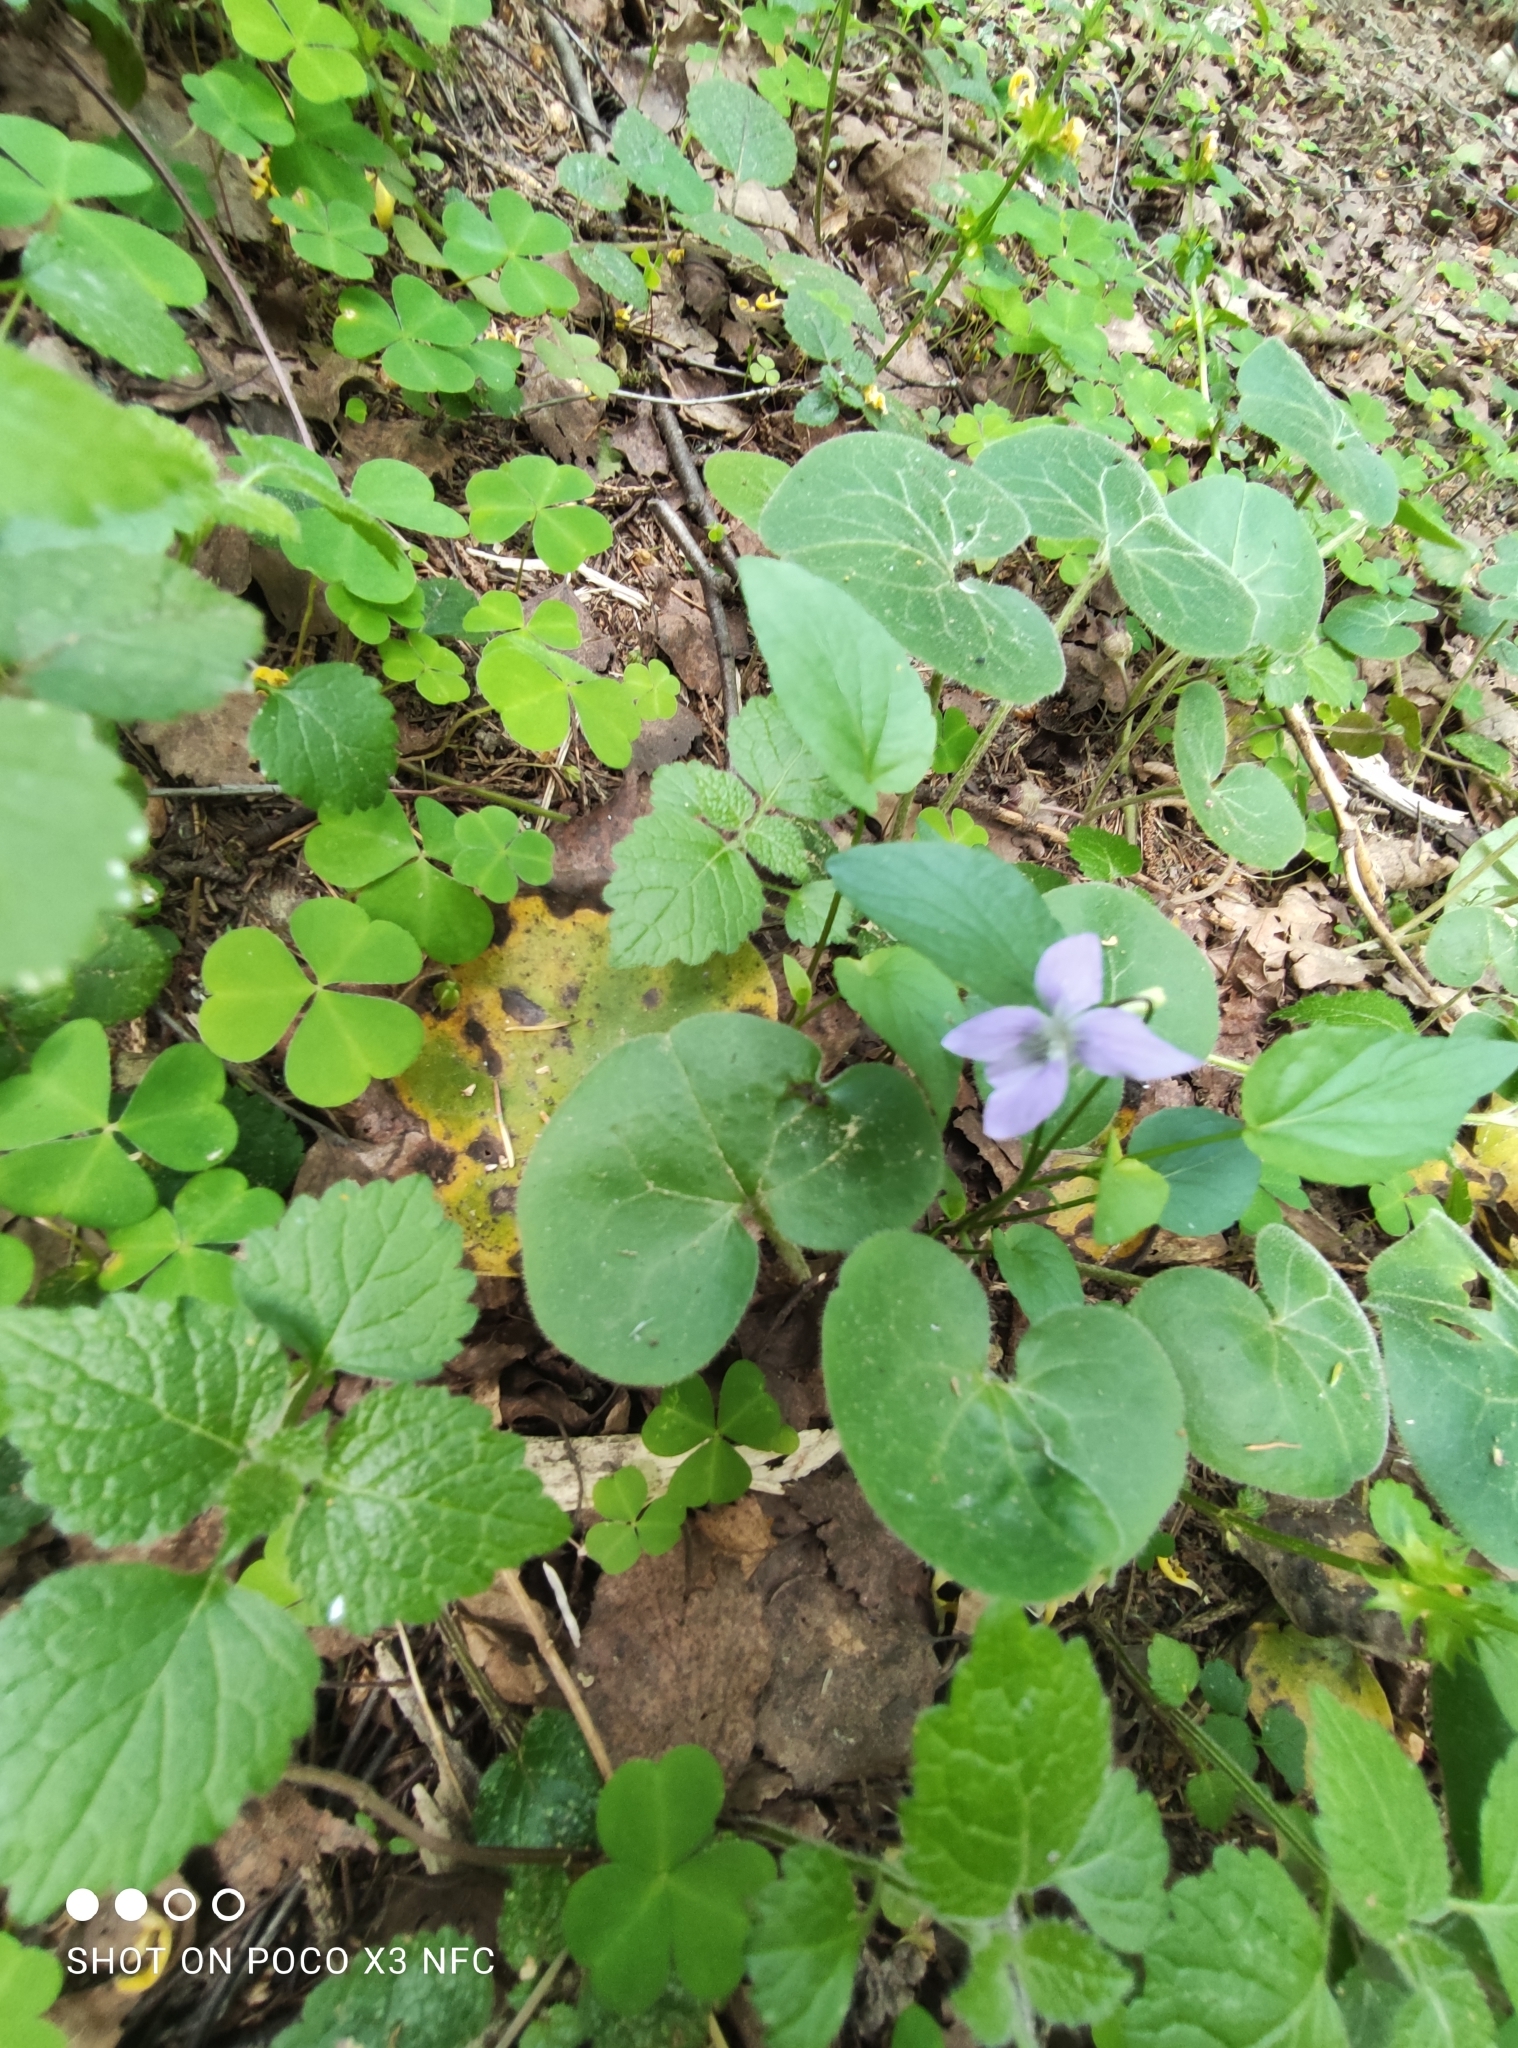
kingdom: Plantae
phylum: Tracheophyta
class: Magnoliopsida
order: Malpighiales
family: Violaceae
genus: Viola
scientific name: Viola
